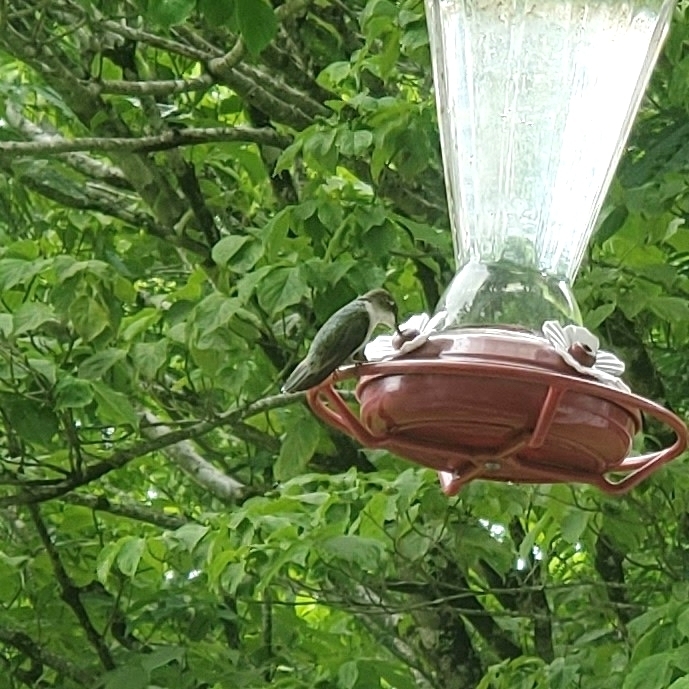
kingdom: Animalia
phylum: Chordata
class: Aves
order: Apodiformes
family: Trochilidae
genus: Archilochus
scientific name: Archilochus colubris
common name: Ruby-throated hummingbird
